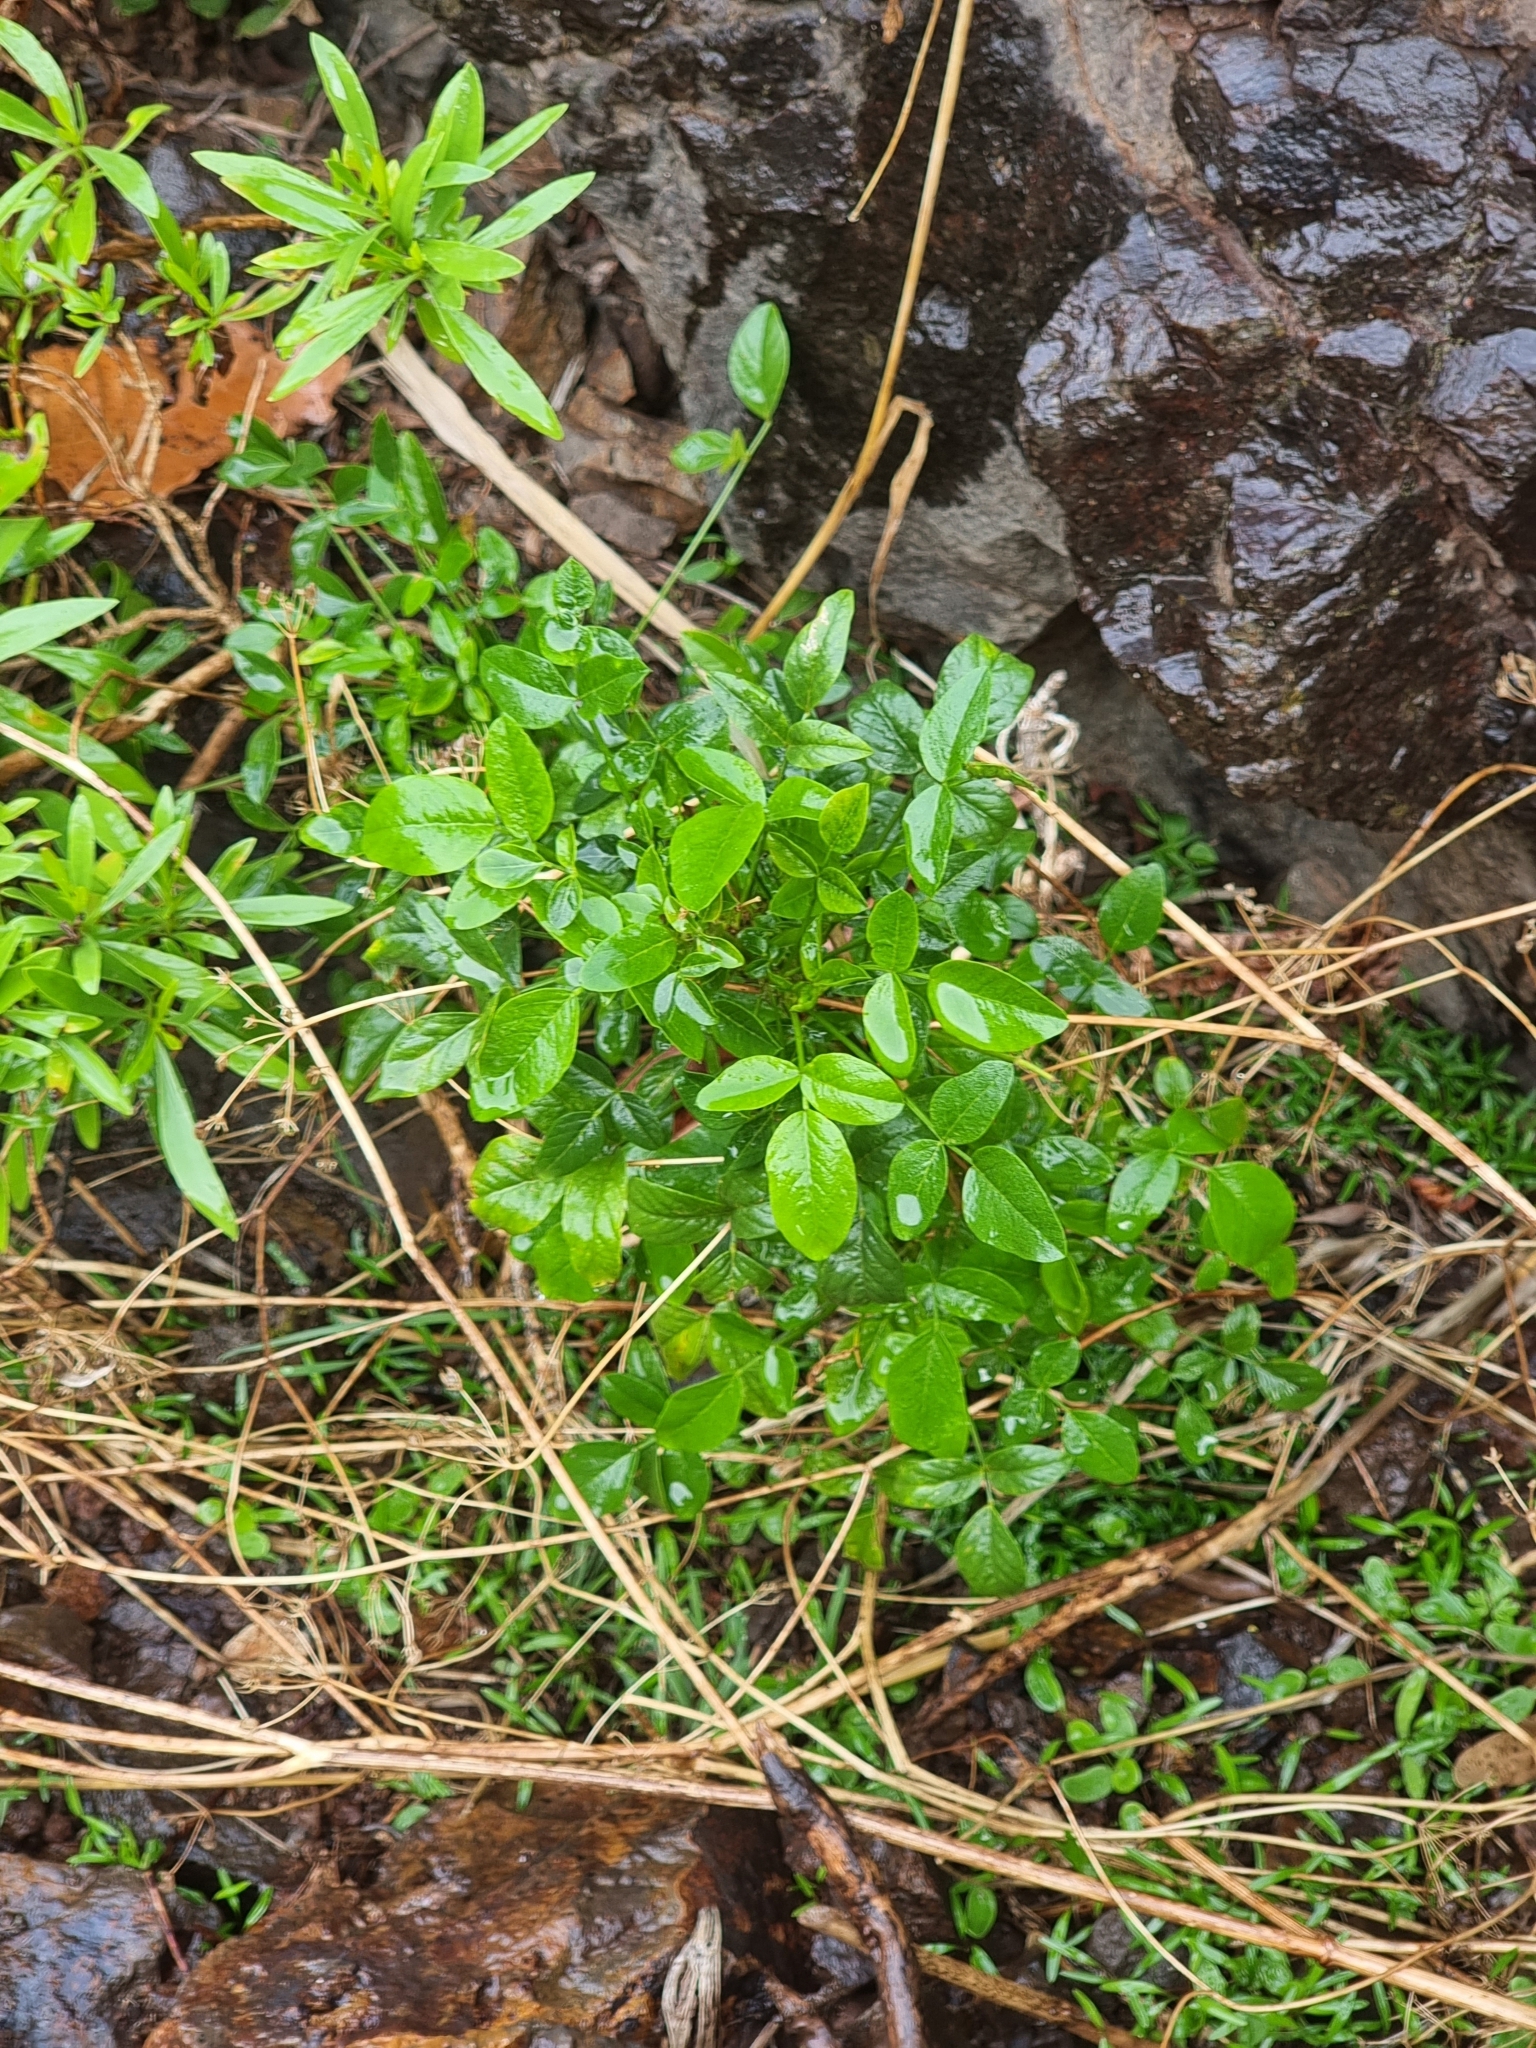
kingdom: Plantae
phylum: Tracheophyta
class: Magnoliopsida
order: Fabales
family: Fabaceae
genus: Bituminaria
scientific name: Bituminaria bituminosa
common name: Arabian pea
